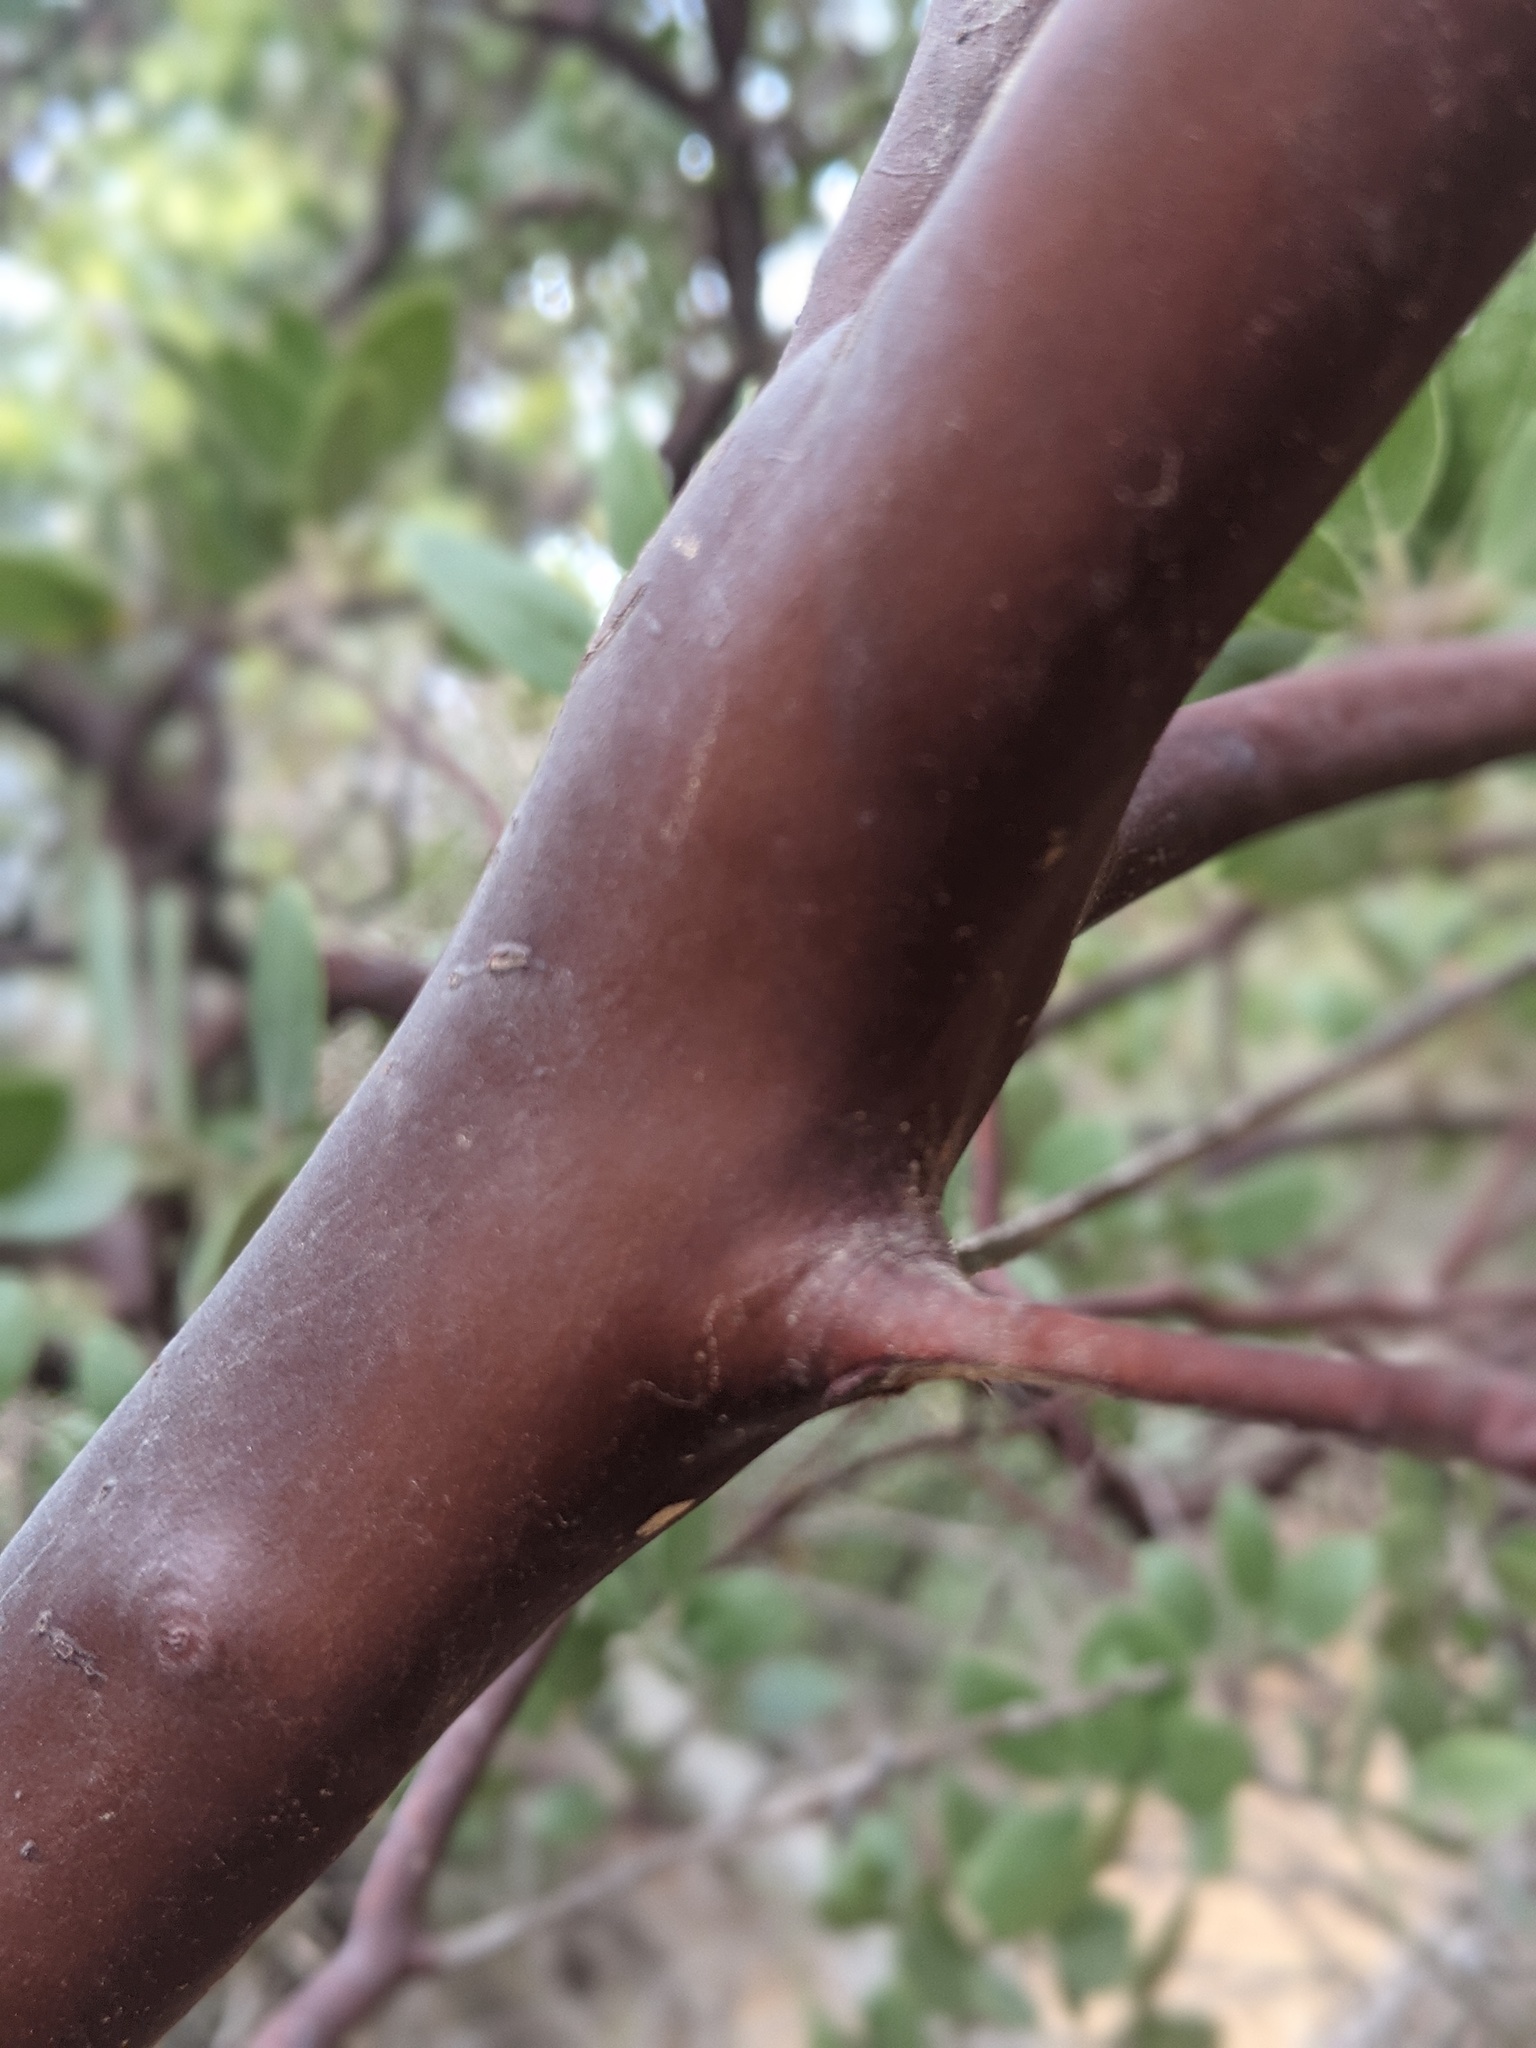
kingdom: Plantae
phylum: Tracheophyta
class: Magnoliopsida
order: Ericales
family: Ericaceae
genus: Arctostaphylos
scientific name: Arctostaphylos manzanita
